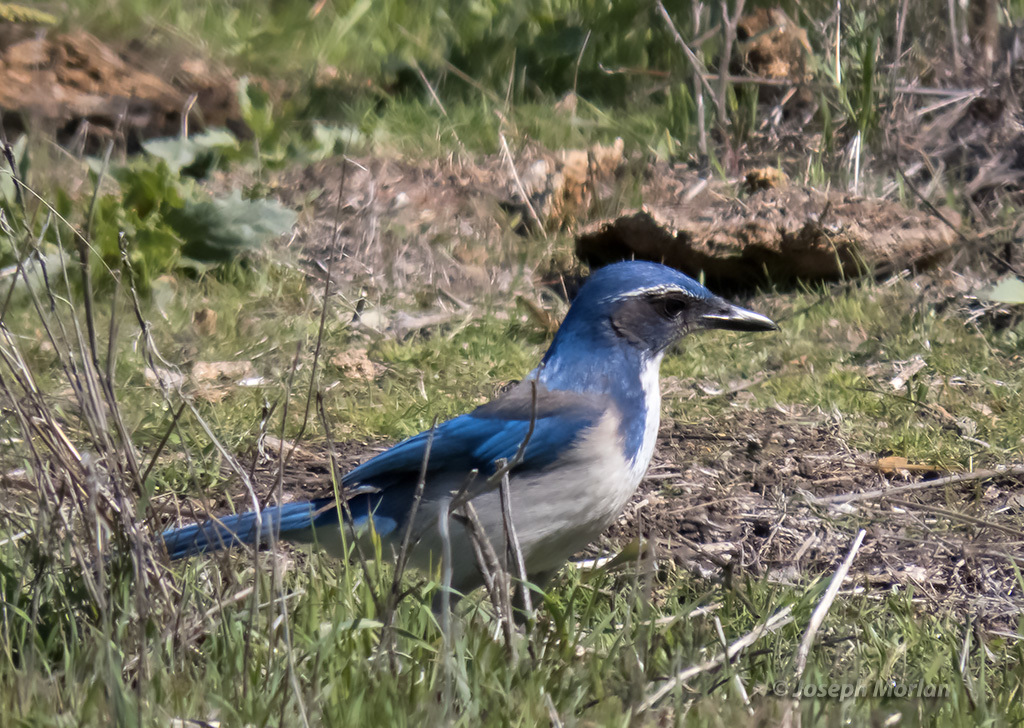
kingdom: Animalia
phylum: Chordata
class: Aves
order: Passeriformes
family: Corvidae
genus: Aphelocoma
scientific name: Aphelocoma californica
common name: California scrub-jay
